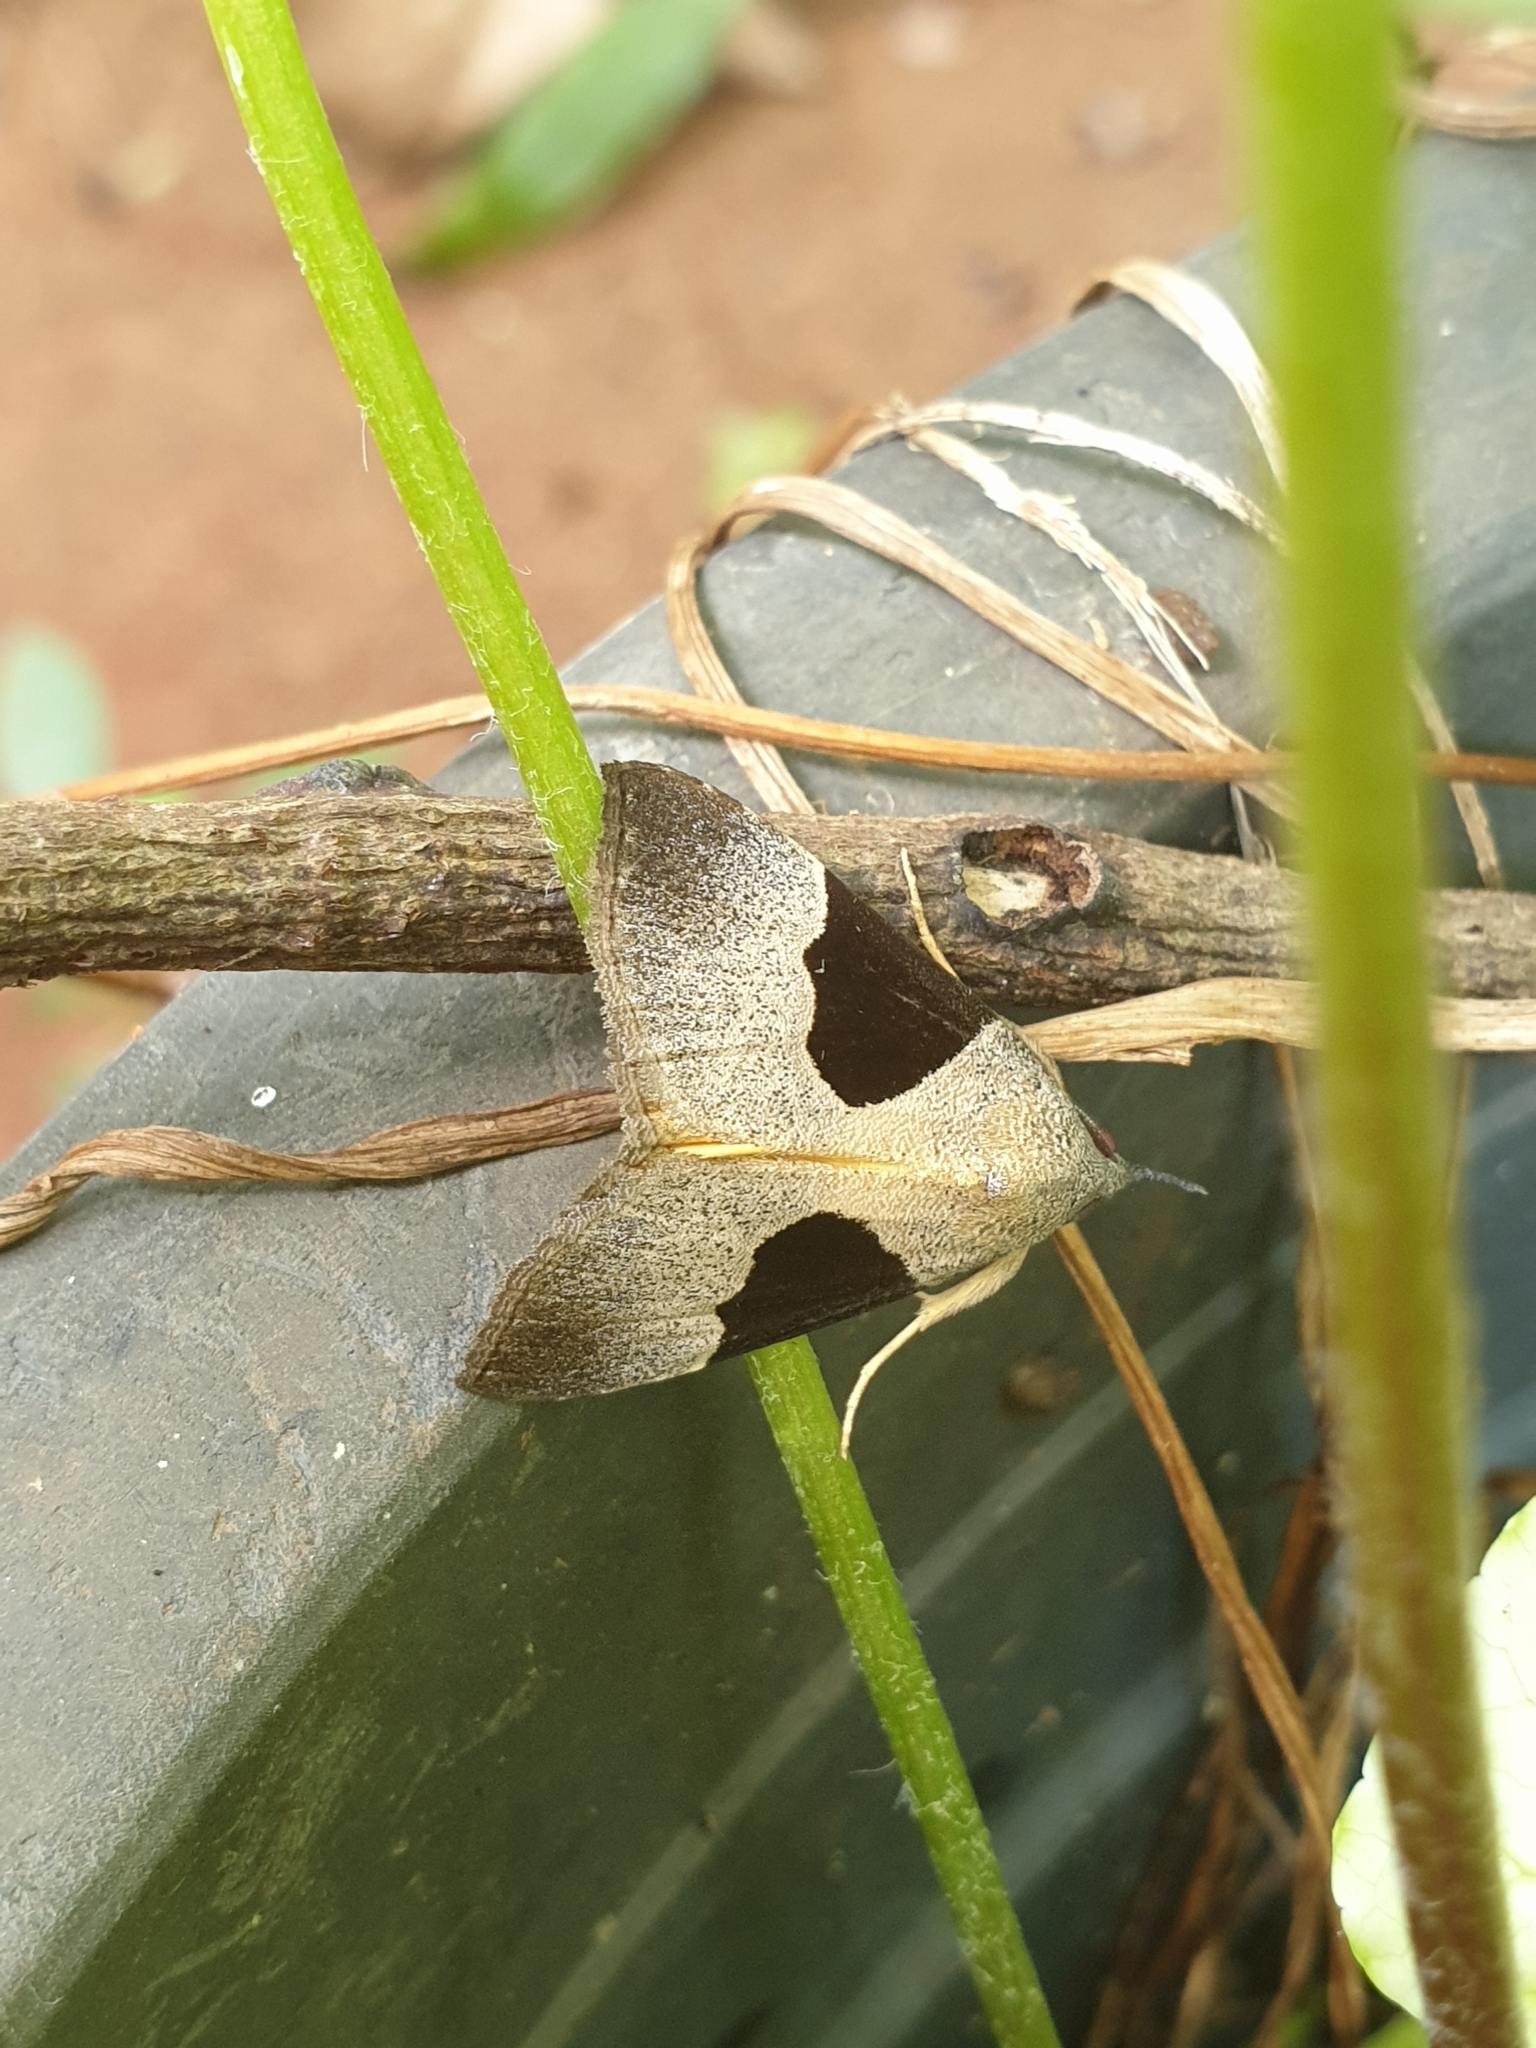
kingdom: Animalia
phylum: Arthropoda
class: Insecta
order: Lepidoptera
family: Erebidae
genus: Hypena
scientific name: Hypena Dichromia sagitta
